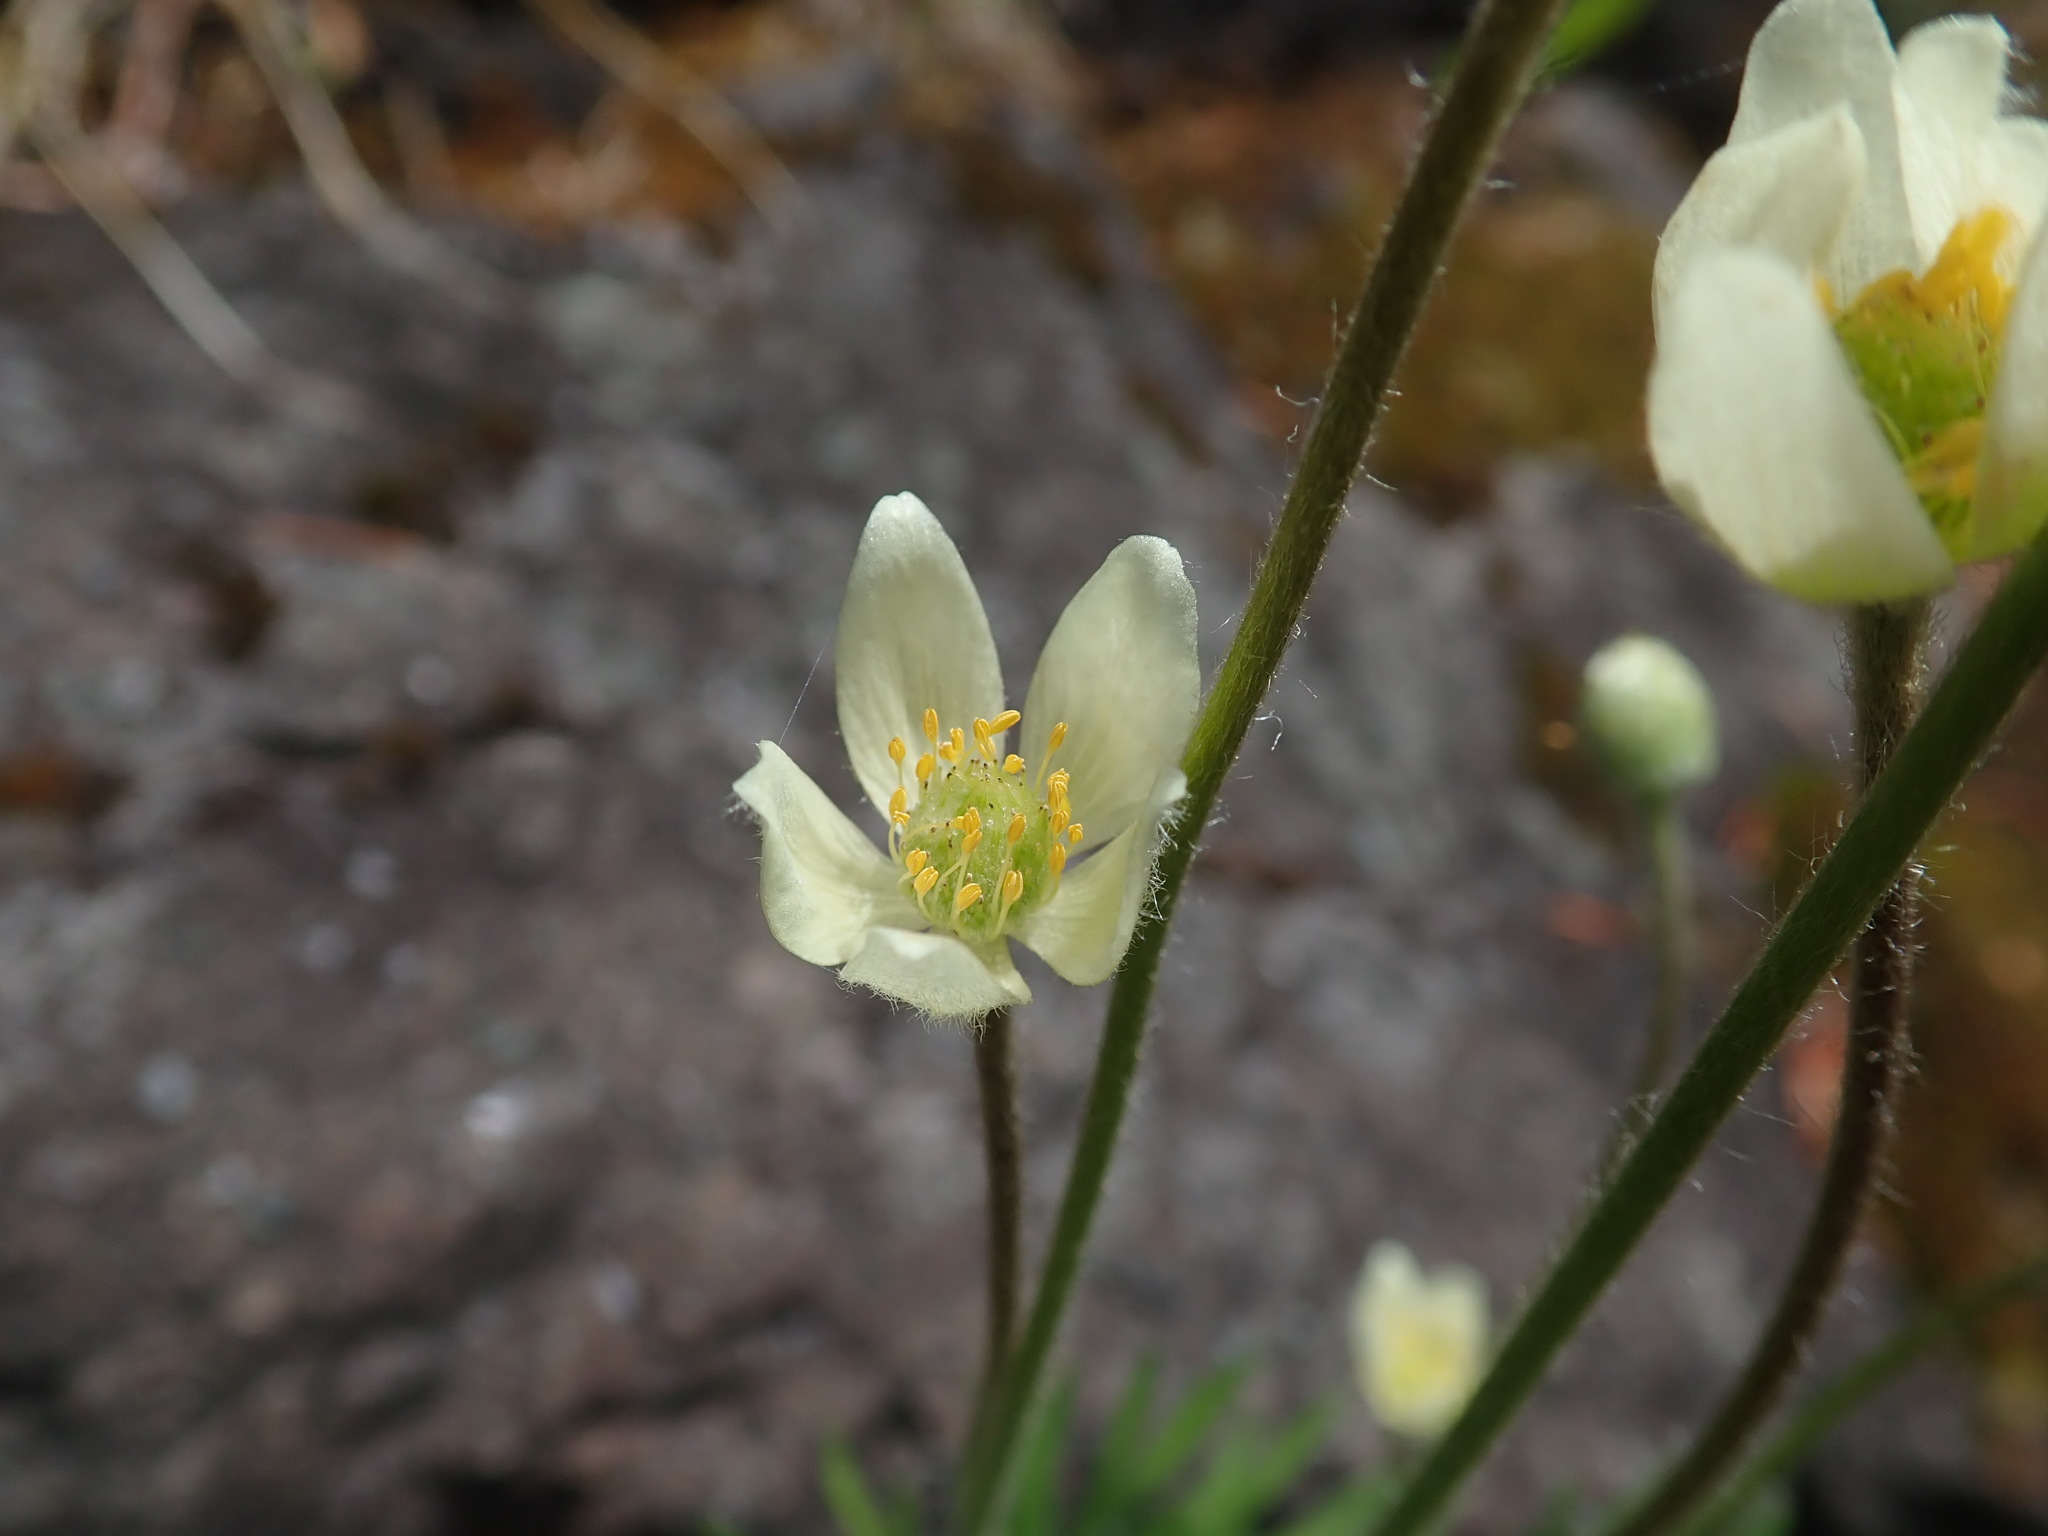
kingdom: Plantae
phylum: Tracheophyta
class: Magnoliopsida
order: Ranunculales
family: Ranunculaceae
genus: Anemone
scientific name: Anemone multifida
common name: Bird's-foot anemone
